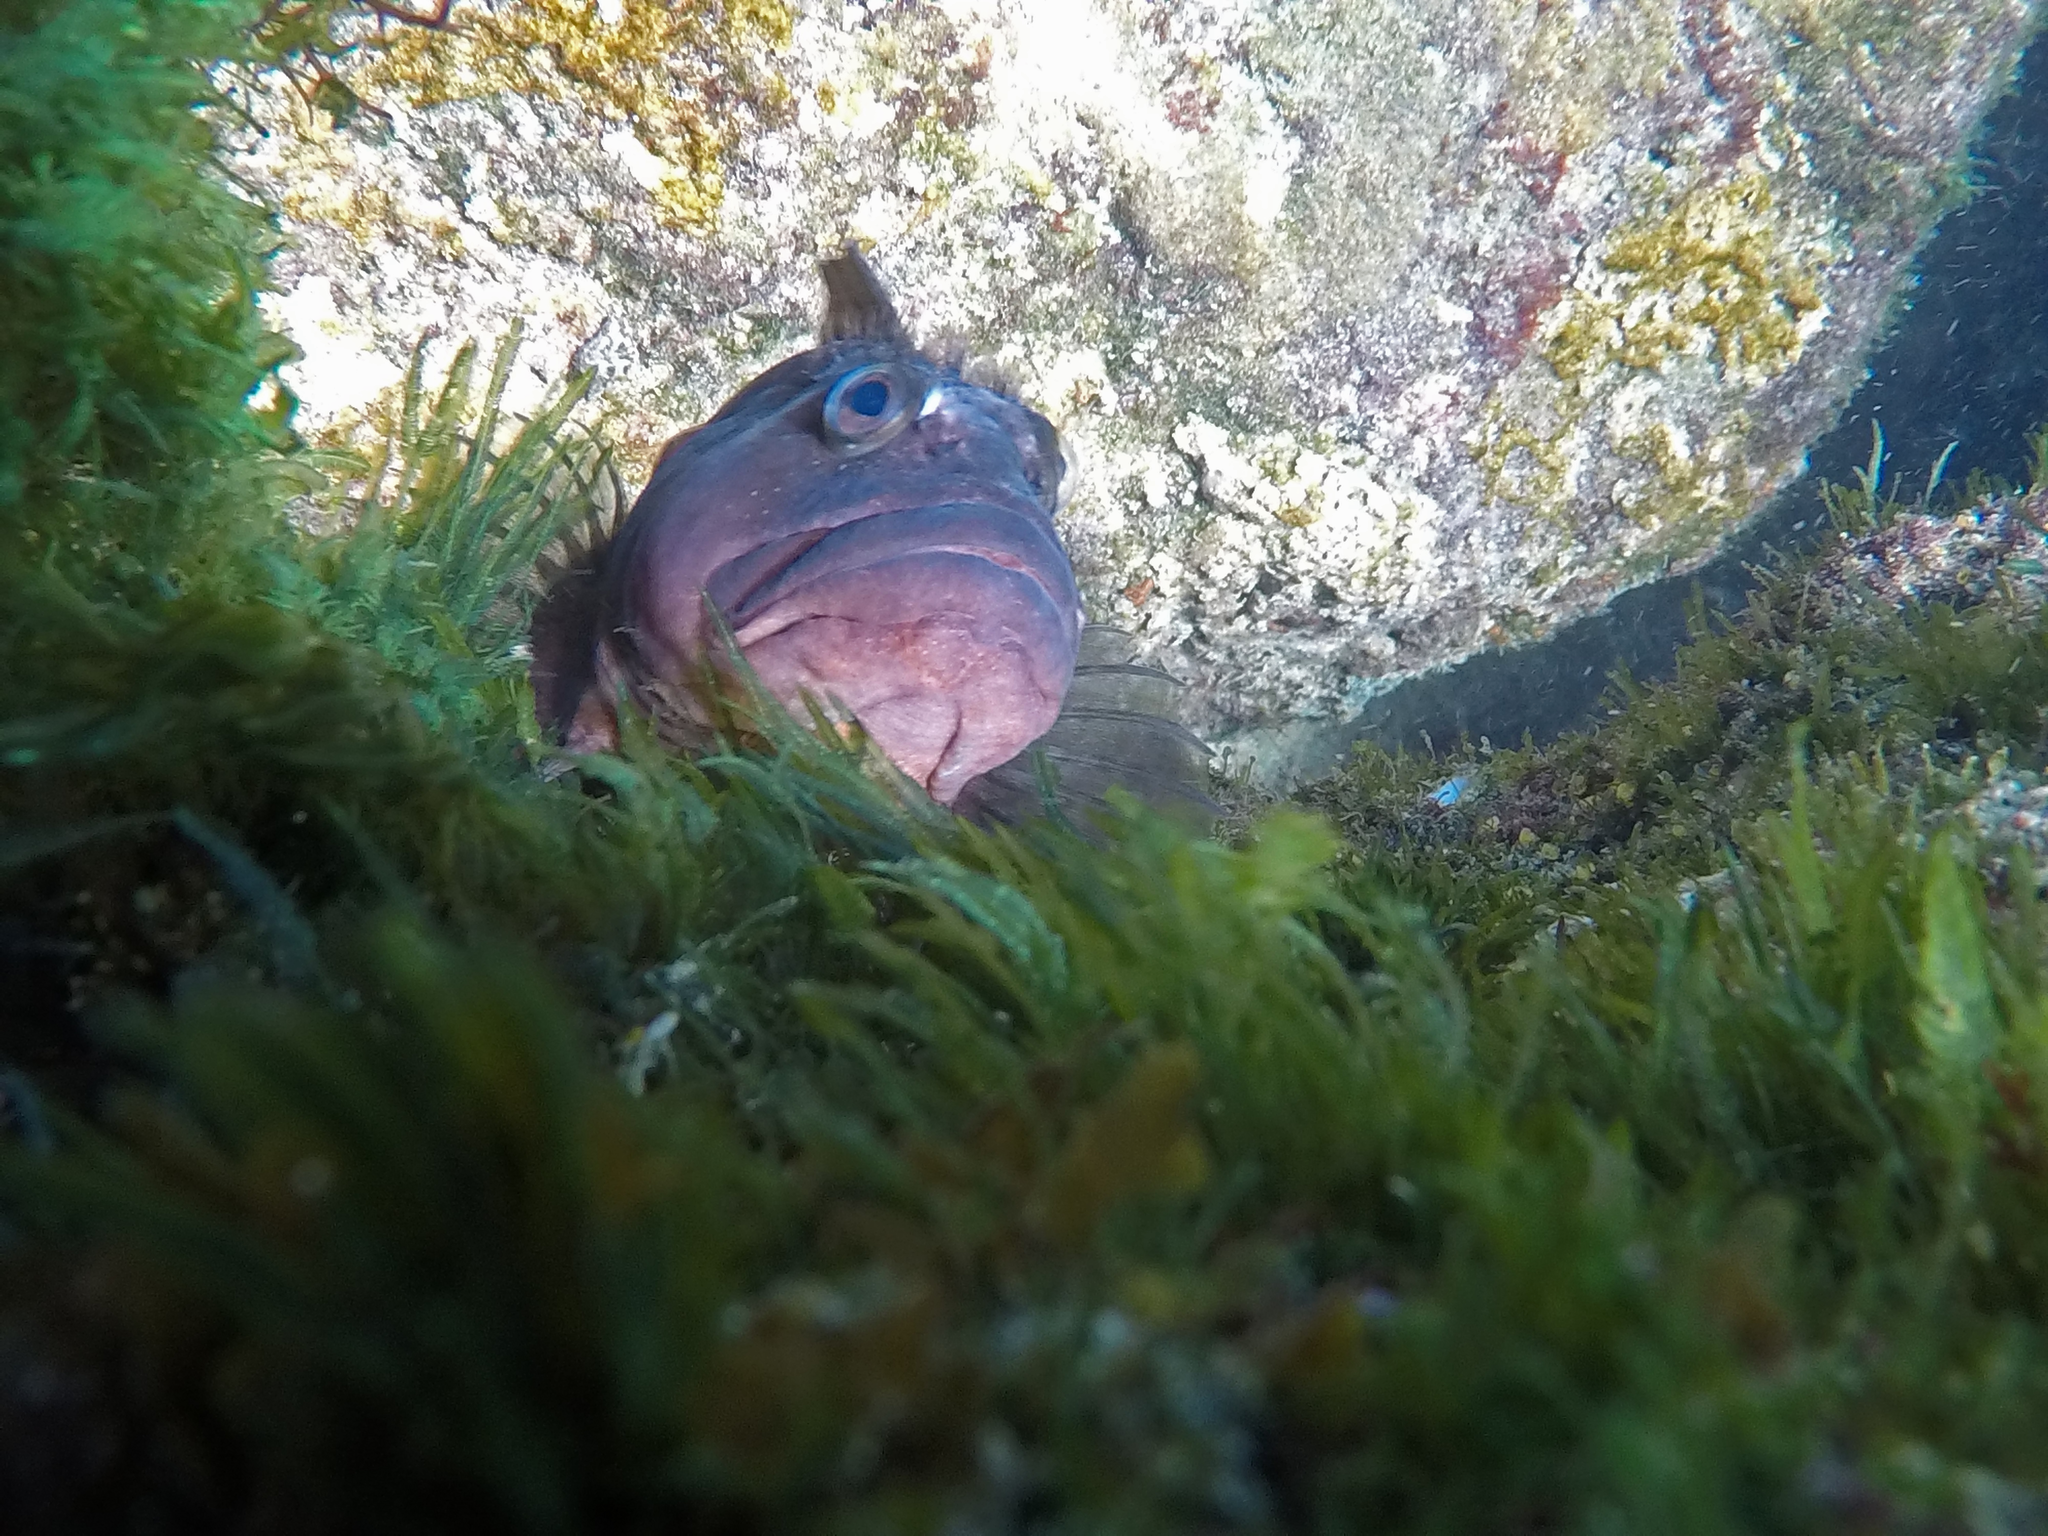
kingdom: Animalia
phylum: Chordata
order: Perciformes
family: Labrisomidae
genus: Labrisomus
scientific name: Labrisomus conditus
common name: Masquerader hairy blenny
